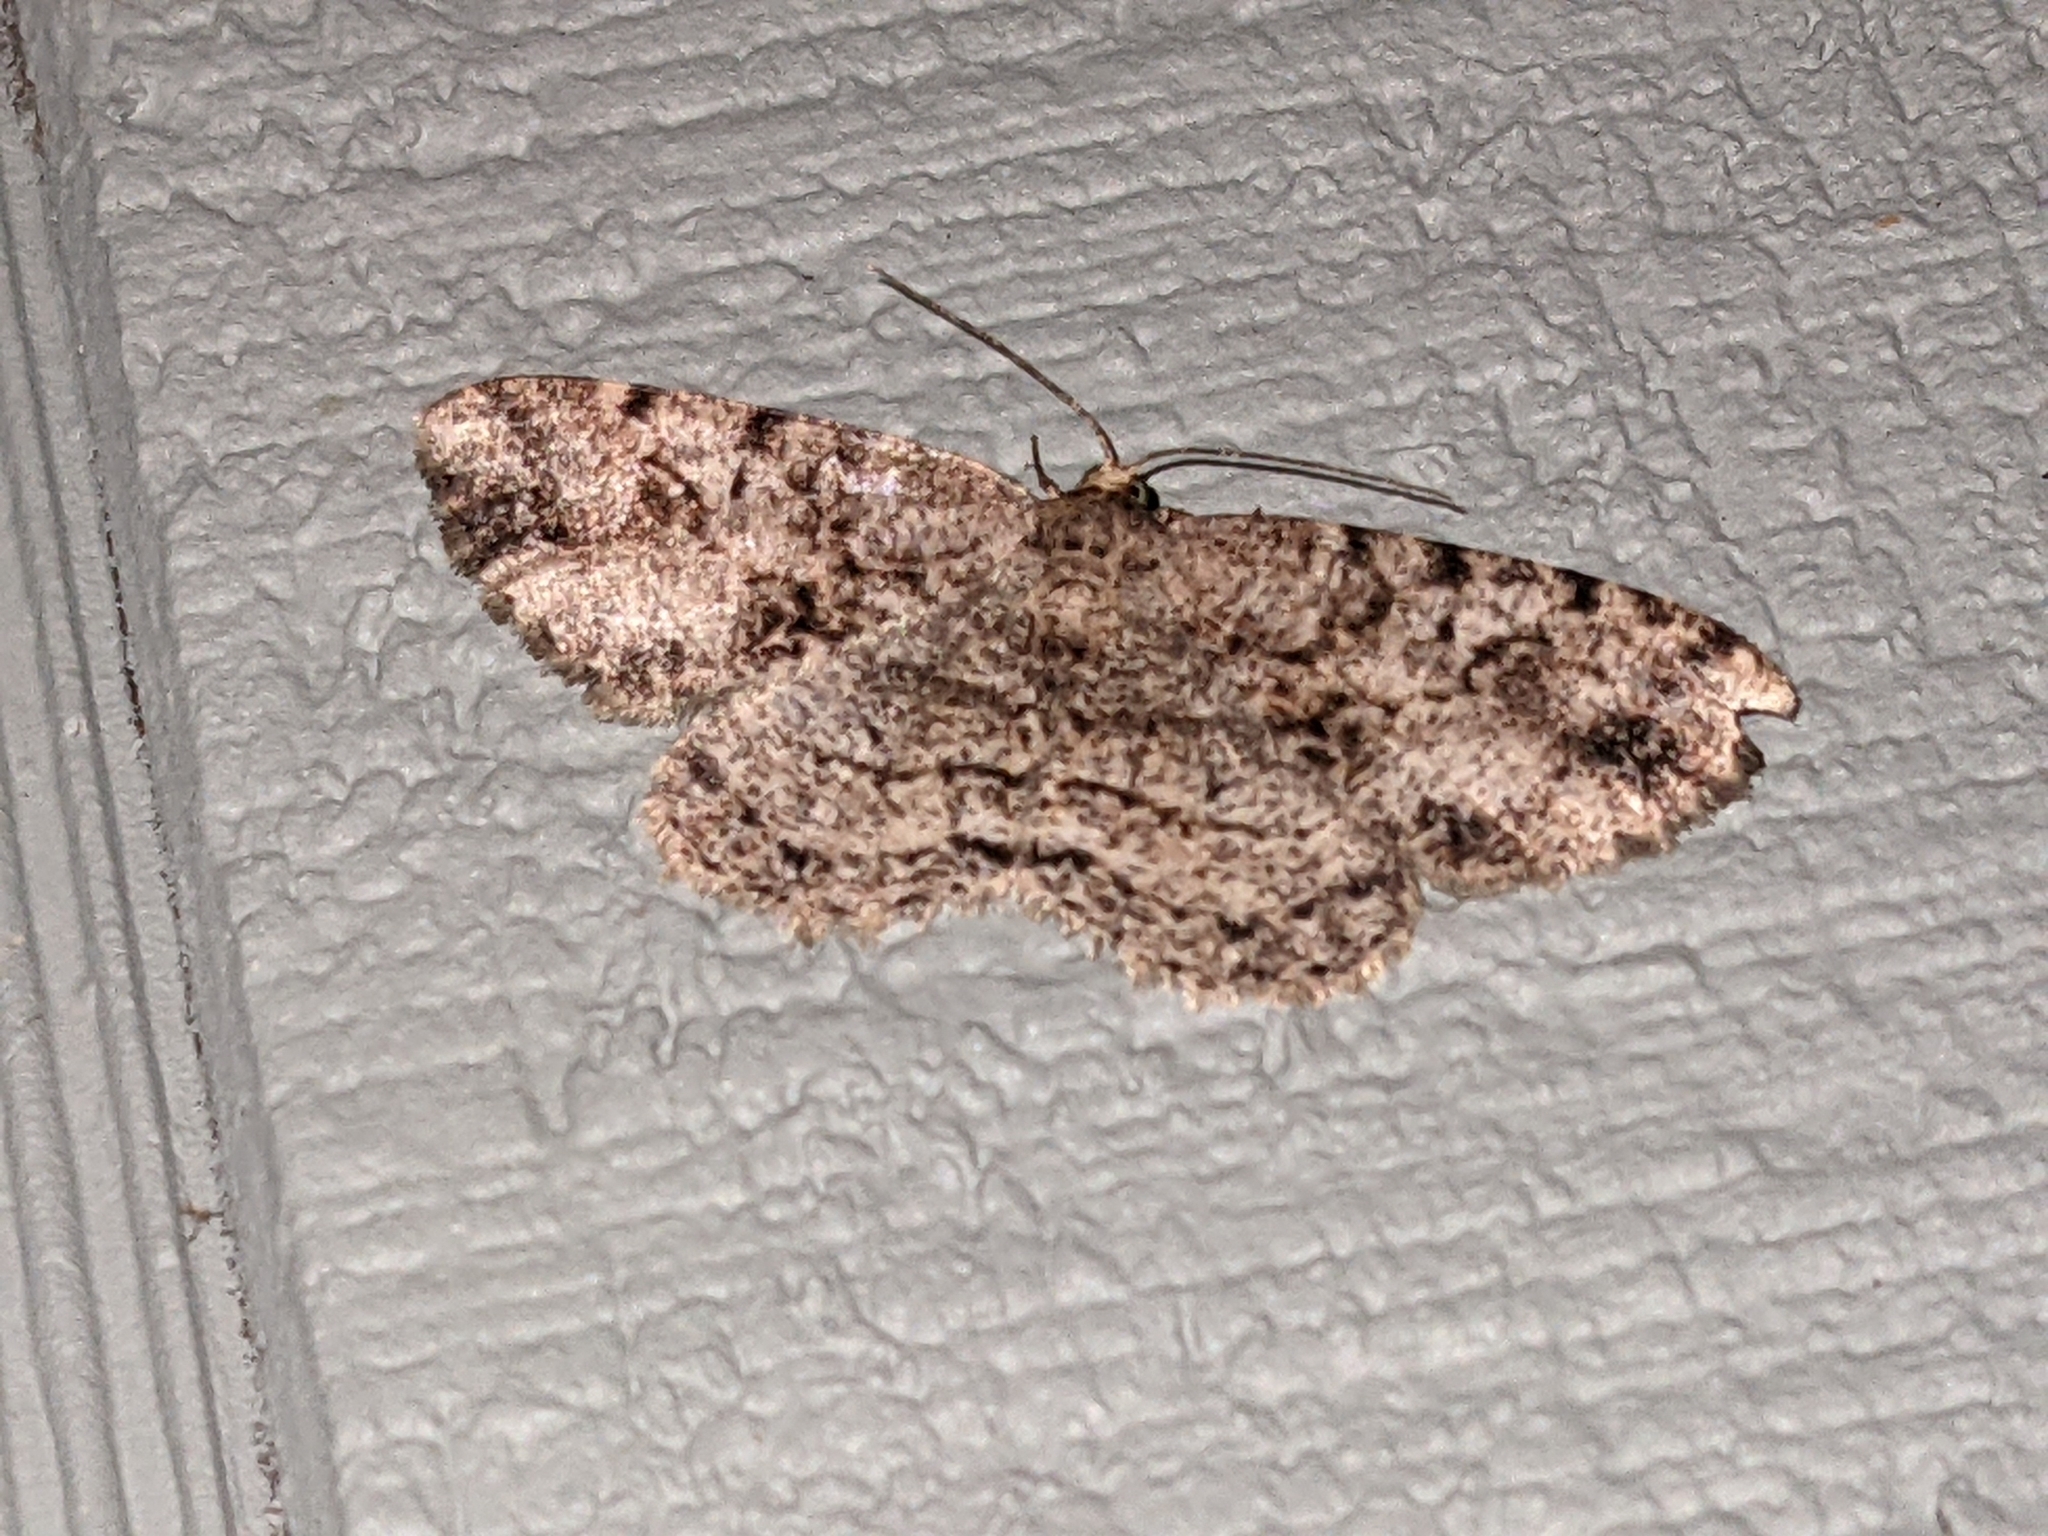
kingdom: Animalia
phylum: Arthropoda
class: Insecta
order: Lepidoptera
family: Geometridae
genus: Melanolophia
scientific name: Melanolophia canadaria
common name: Canadian melanolophia
